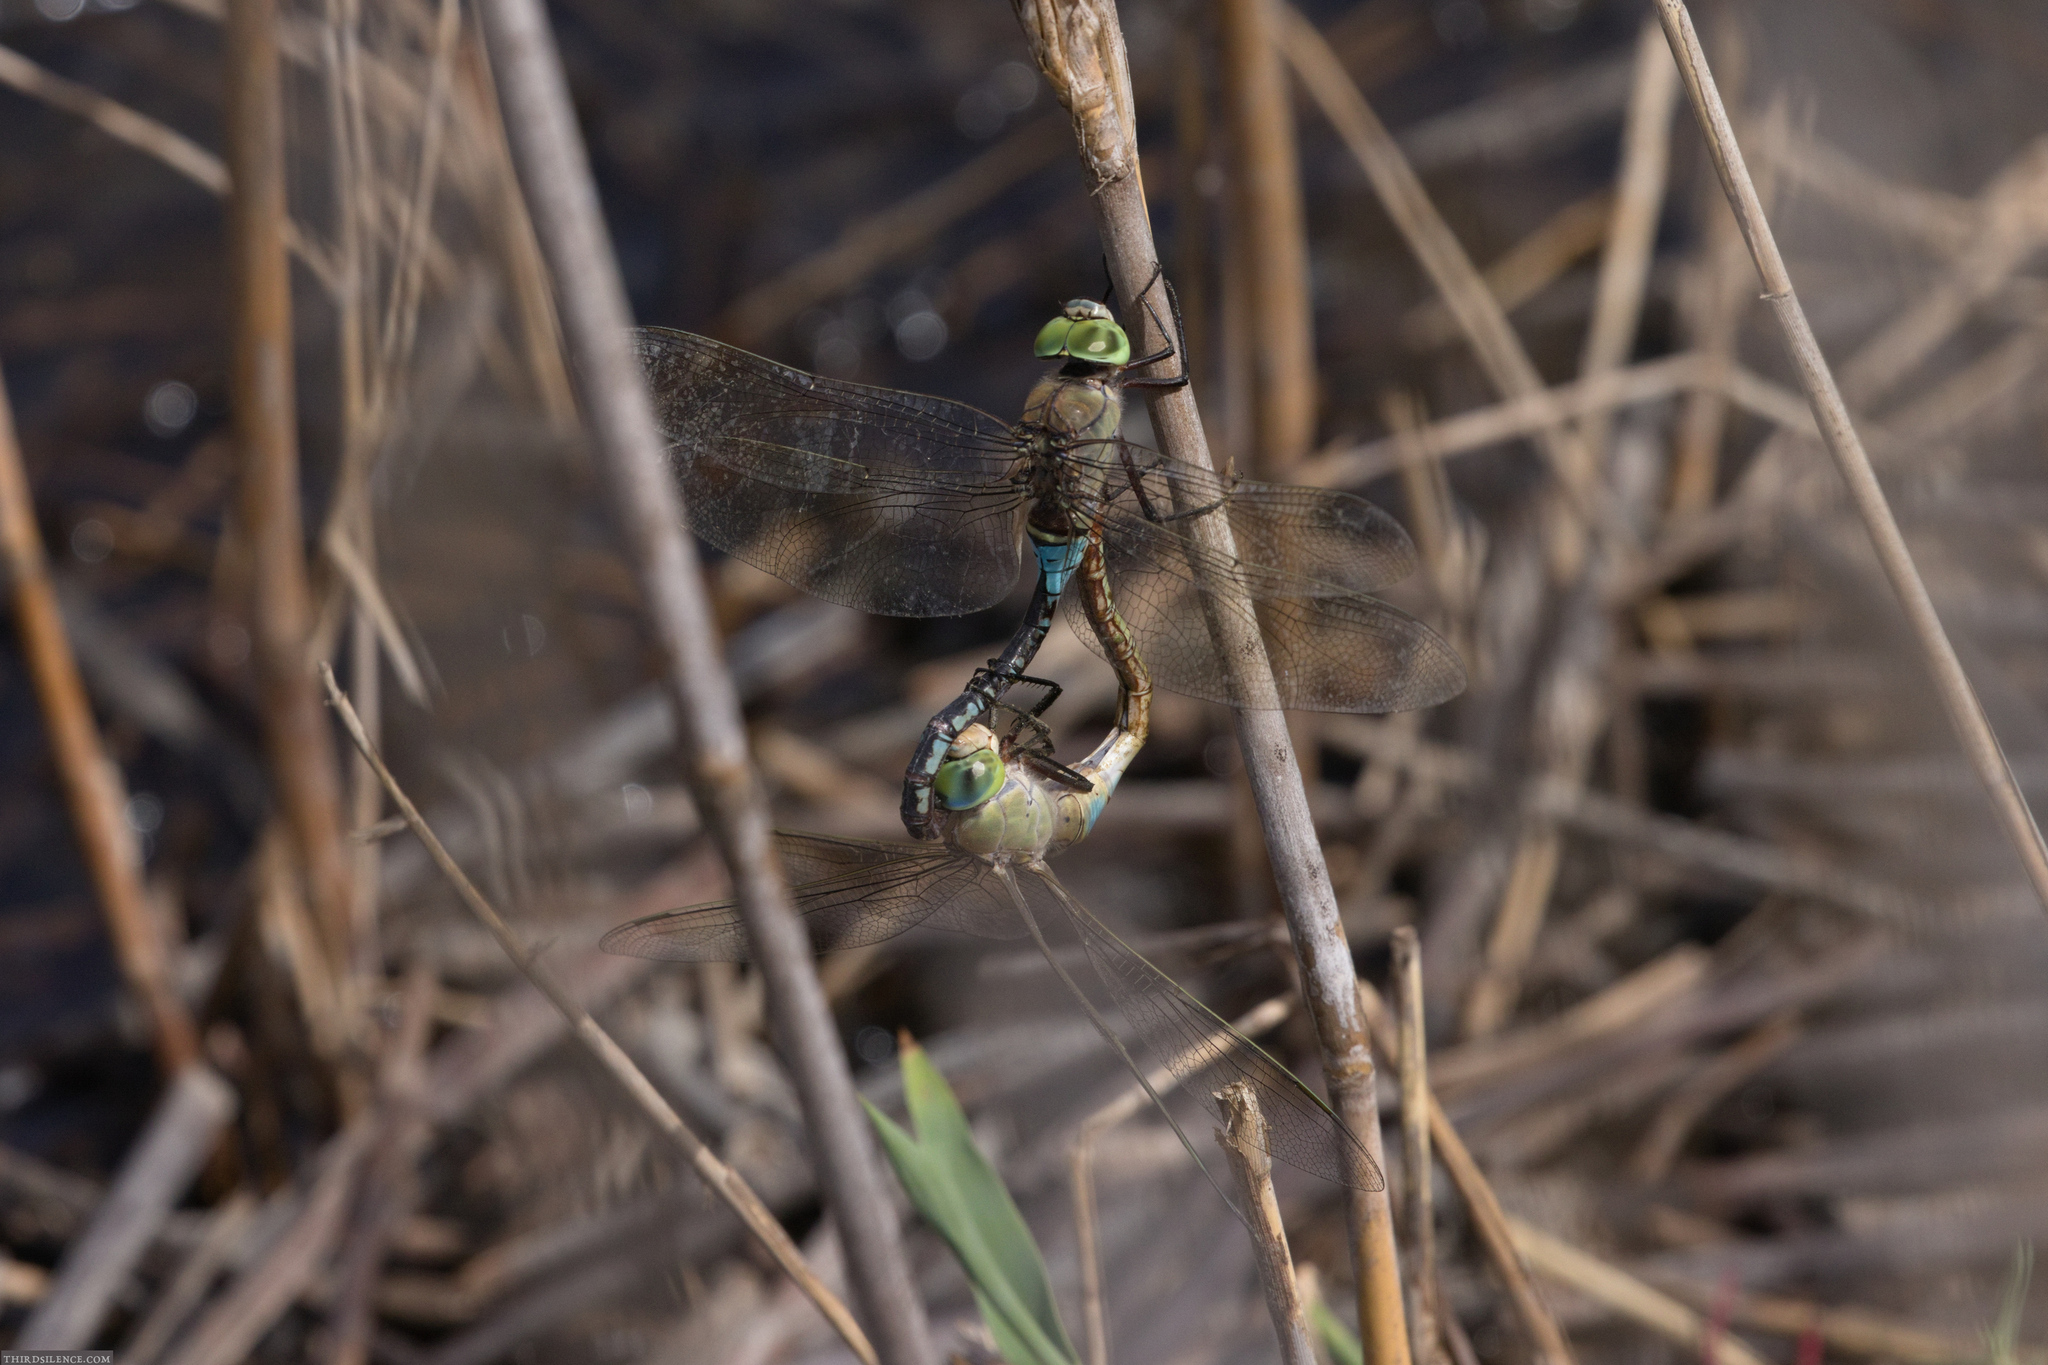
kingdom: Animalia
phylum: Arthropoda
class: Insecta
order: Odonata
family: Aeshnidae
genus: Anax
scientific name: Anax parthenope
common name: Lesser emperor
